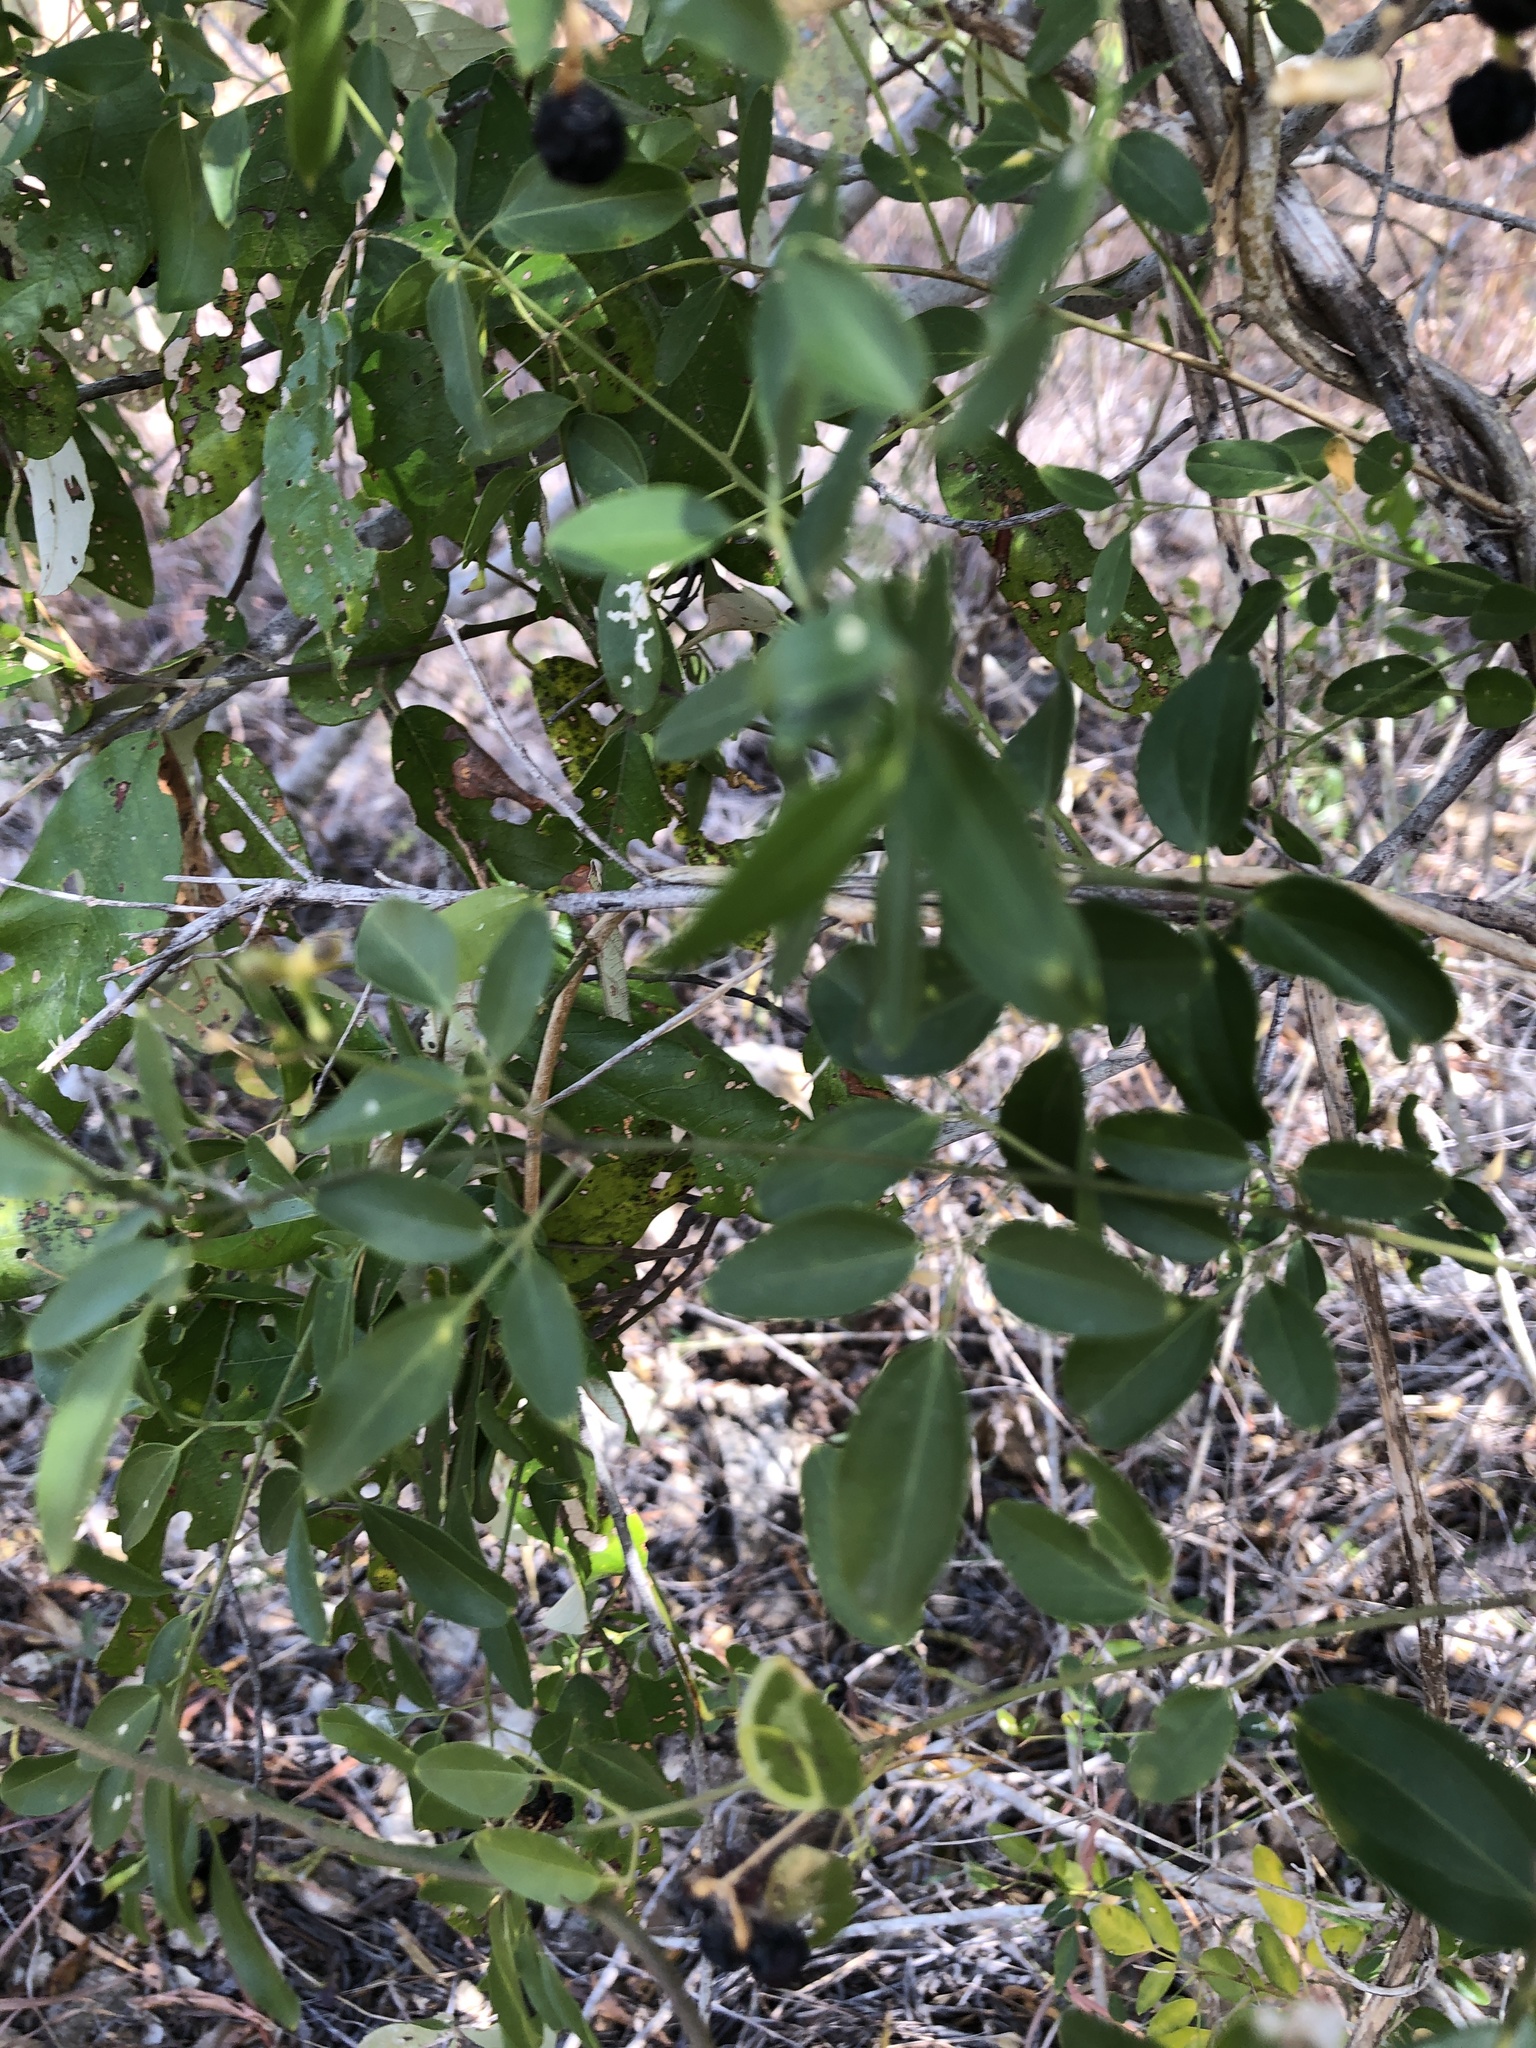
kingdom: Plantae
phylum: Tracheophyta
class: Magnoliopsida
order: Lamiales
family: Oleaceae
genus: Jasminum
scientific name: Jasminum didymum
